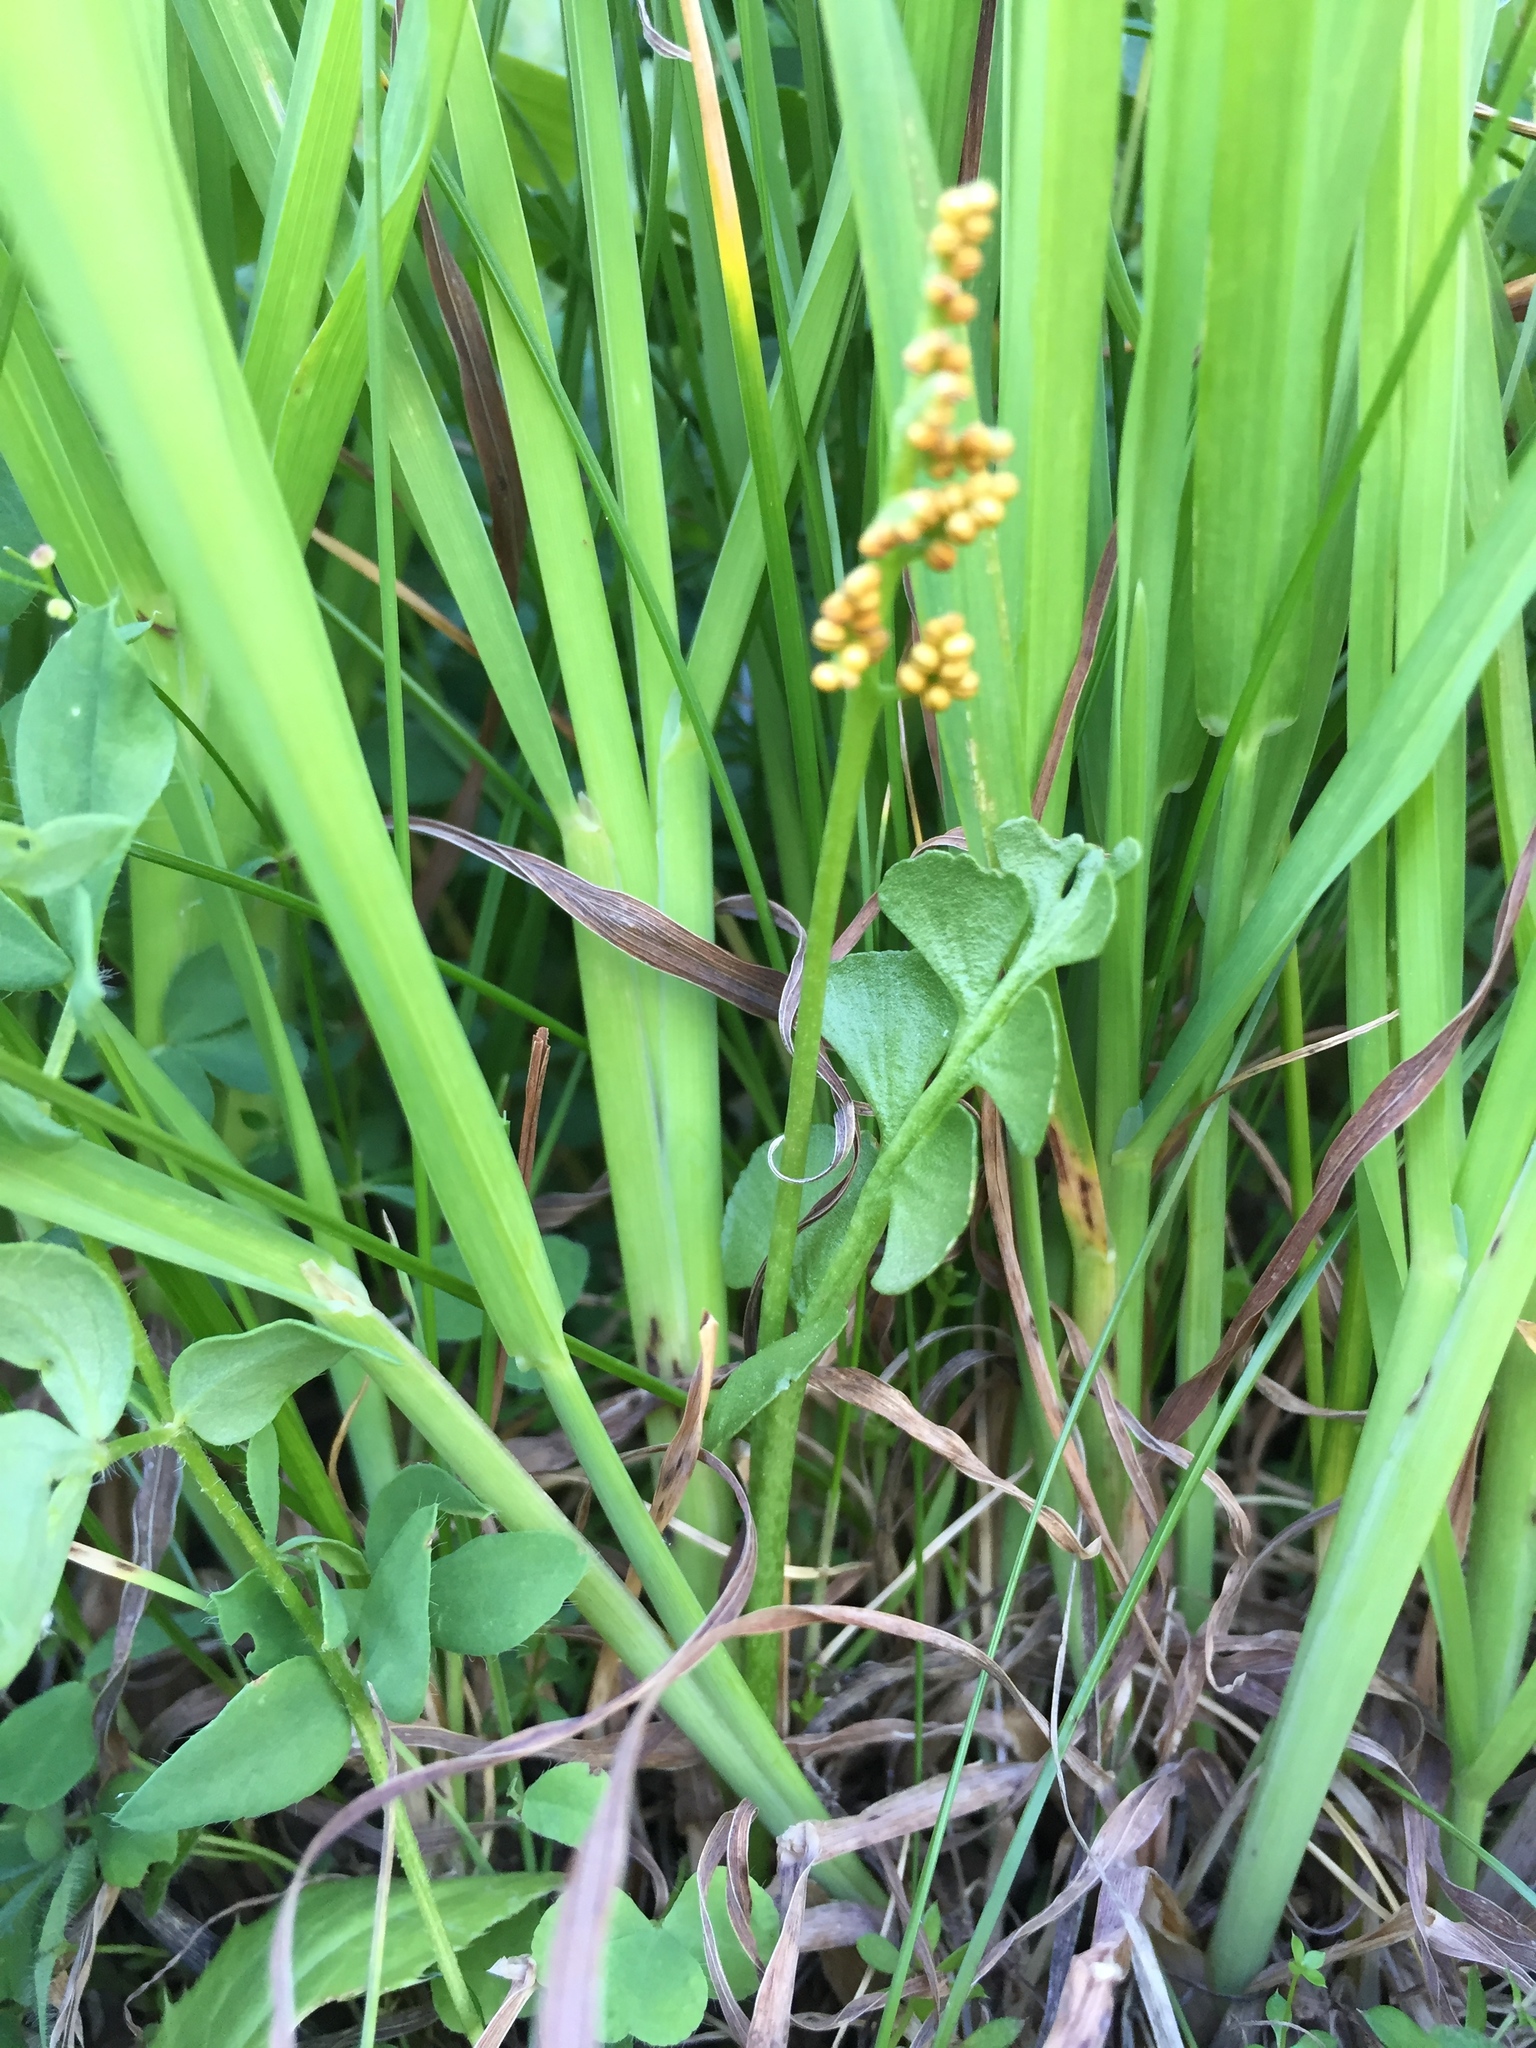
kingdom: Plantae
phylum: Tracheophyta
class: Polypodiopsida
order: Ophioglossales
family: Ophioglossaceae
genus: Botrychium
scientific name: Botrychium lunaria
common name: Moonwort
